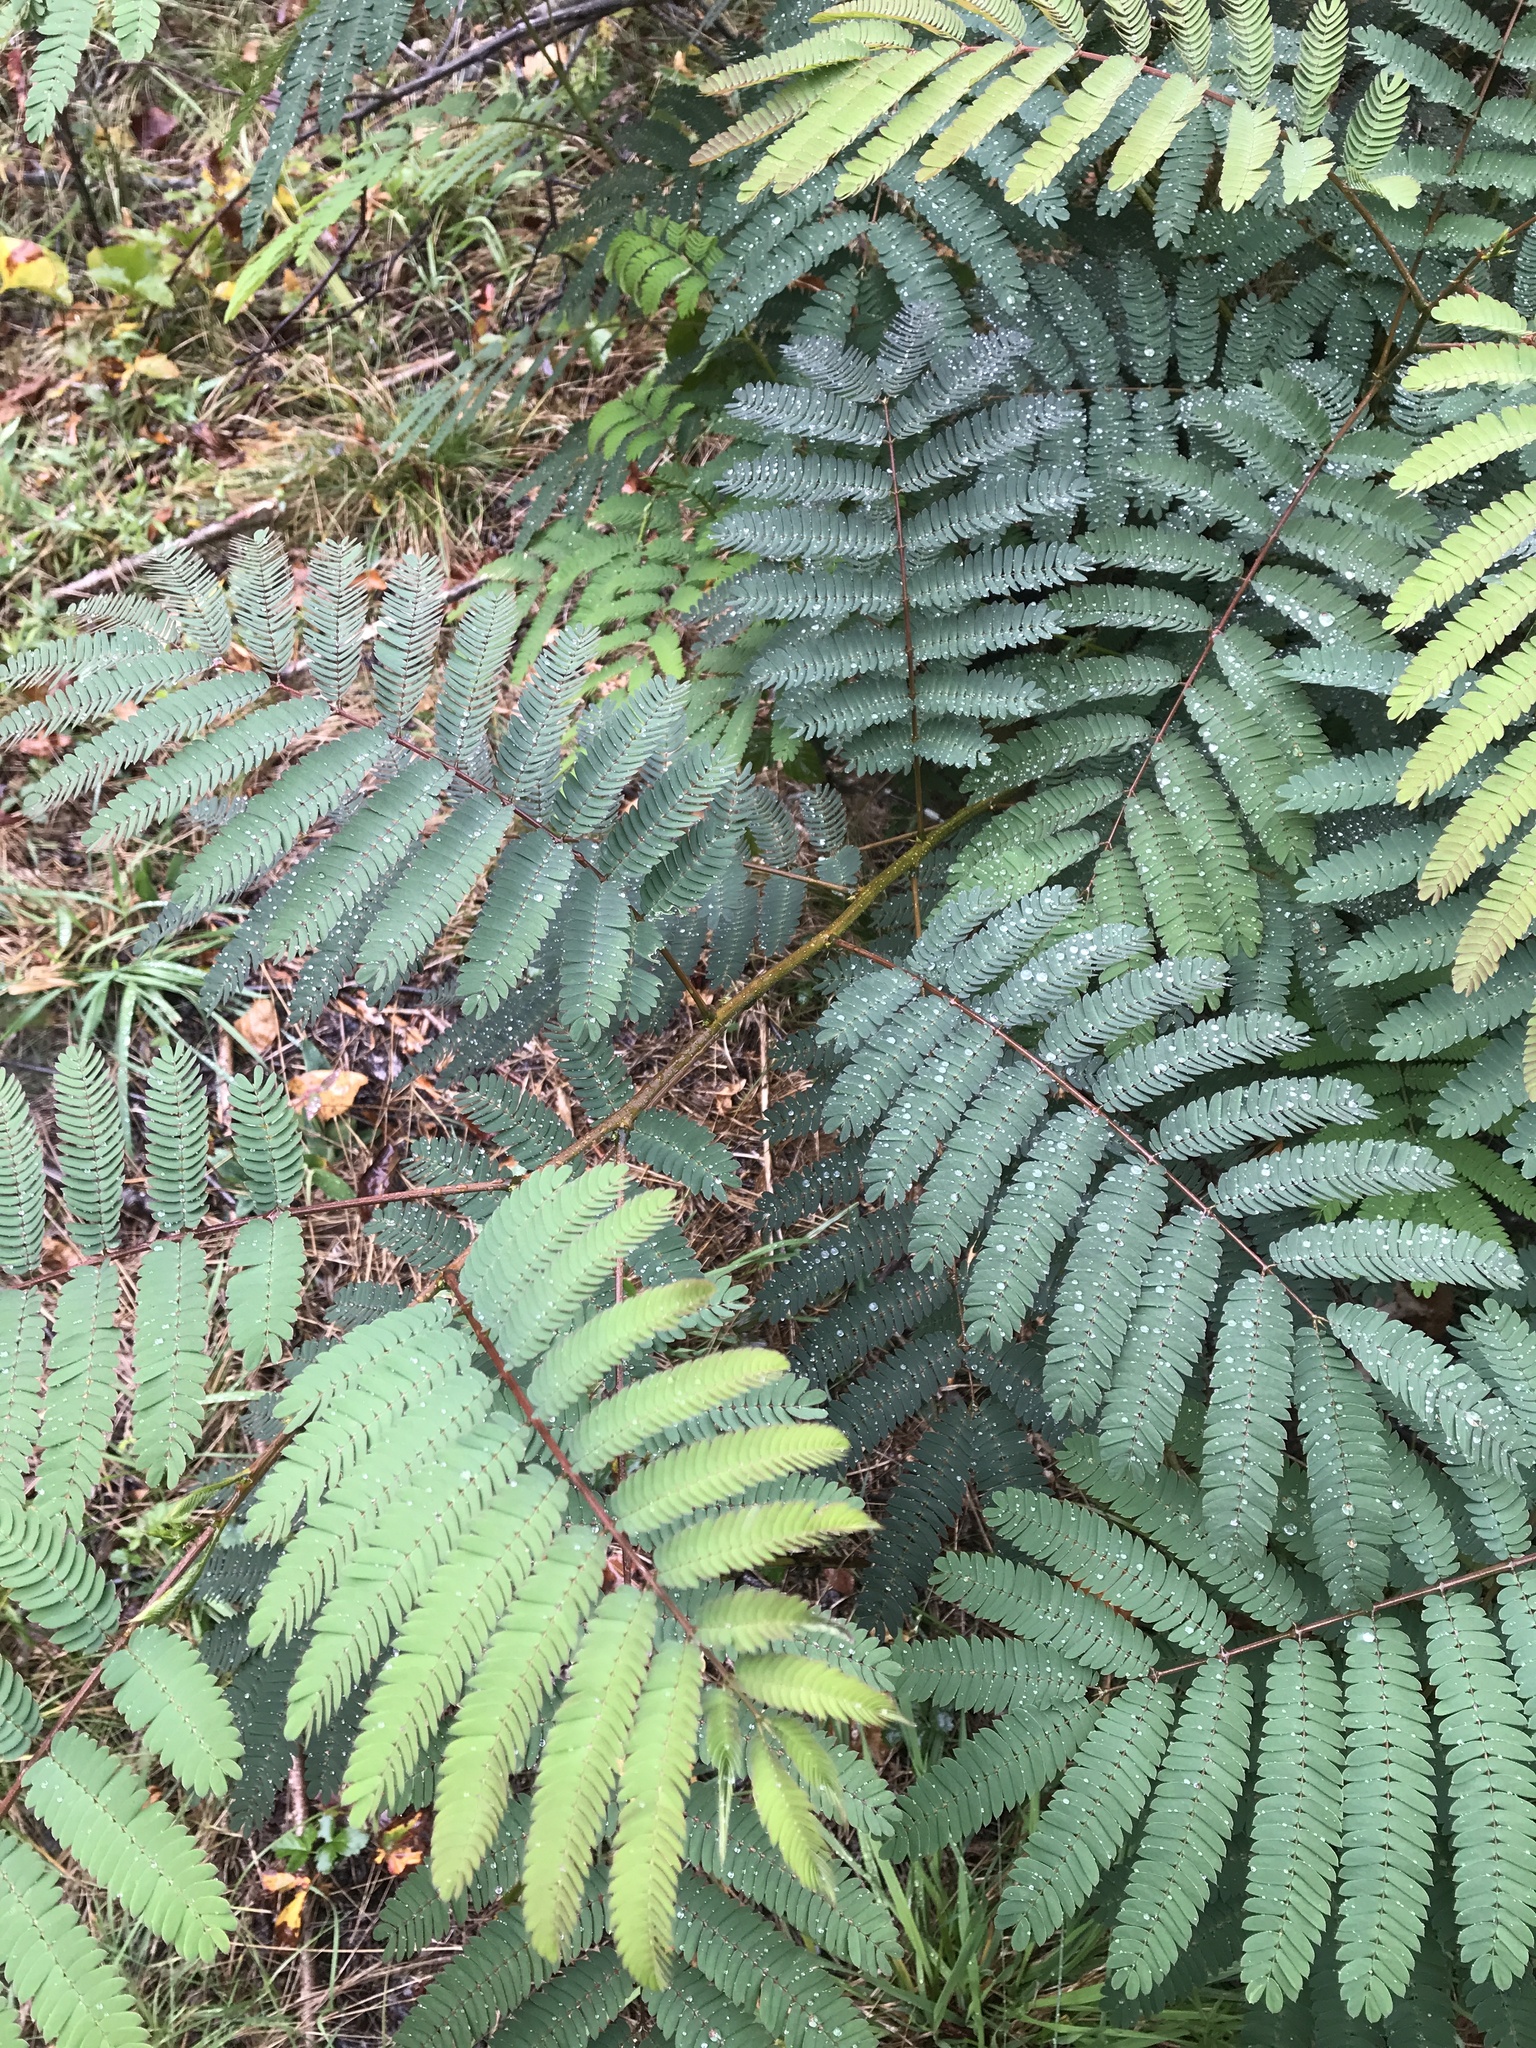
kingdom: Plantae
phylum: Tracheophyta
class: Magnoliopsida
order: Fabales
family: Fabaceae
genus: Albizia
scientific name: Albizia julibrissin
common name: Silktree
